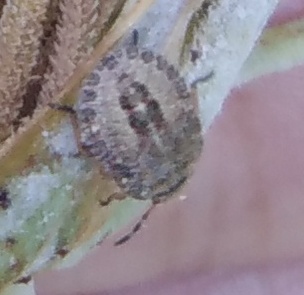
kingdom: Animalia
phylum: Arthropoda
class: Insecta
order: Hemiptera
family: Pentatomidae
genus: Dolycoris
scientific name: Dolycoris baccarum
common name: Sloe bug
